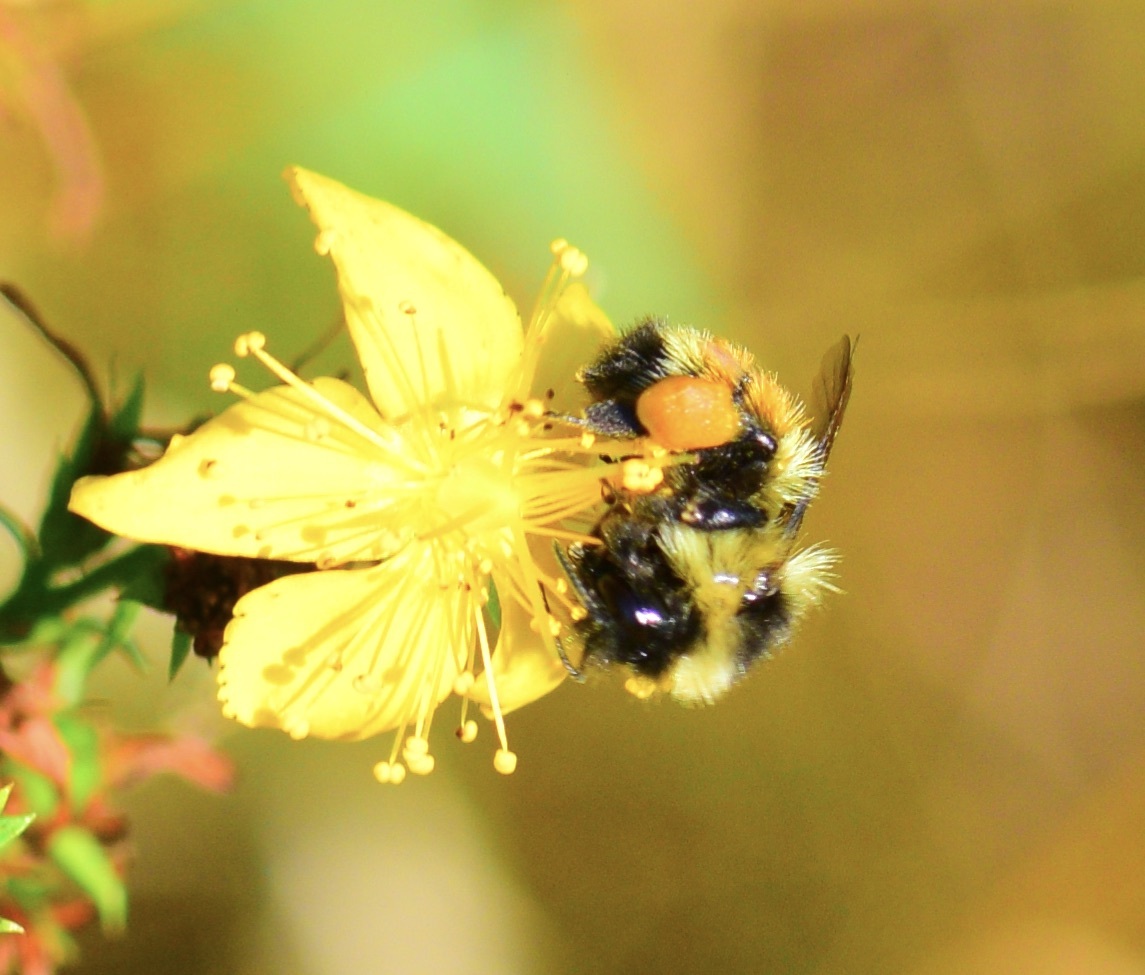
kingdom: Animalia
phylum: Arthropoda
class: Insecta
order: Hymenoptera
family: Apidae
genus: Bombus
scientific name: Bombus ternarius
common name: Tri-colored bumble bee
